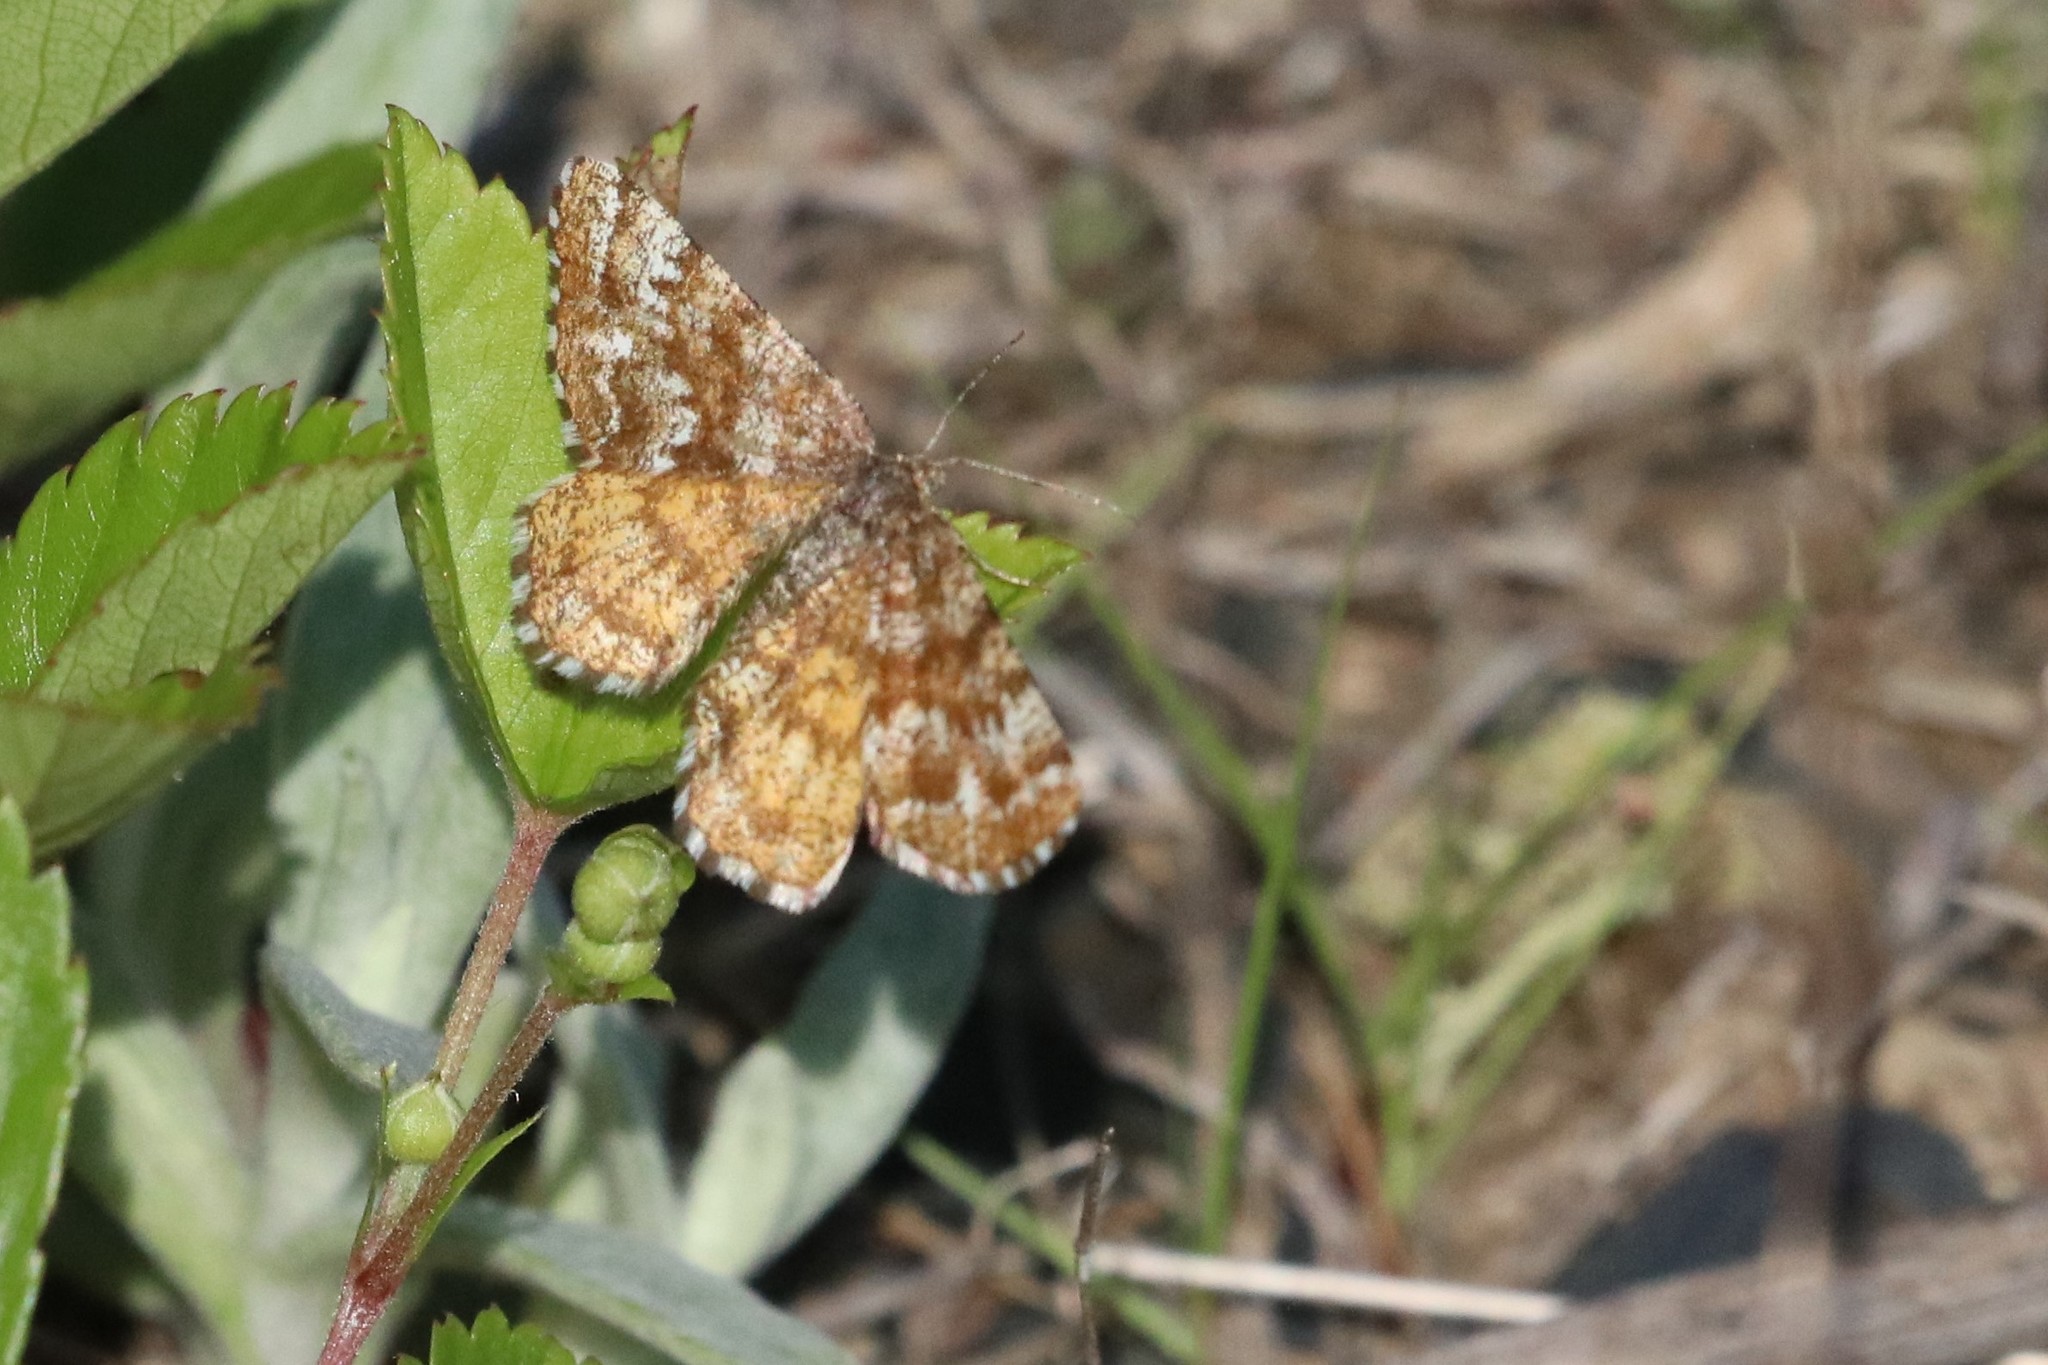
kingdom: Animalia
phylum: Arthropoda
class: Insecta
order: Lepidoptera
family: Geometridae
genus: Ematurga
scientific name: Ematurga amitaria
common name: Cranberry spanworm moth
